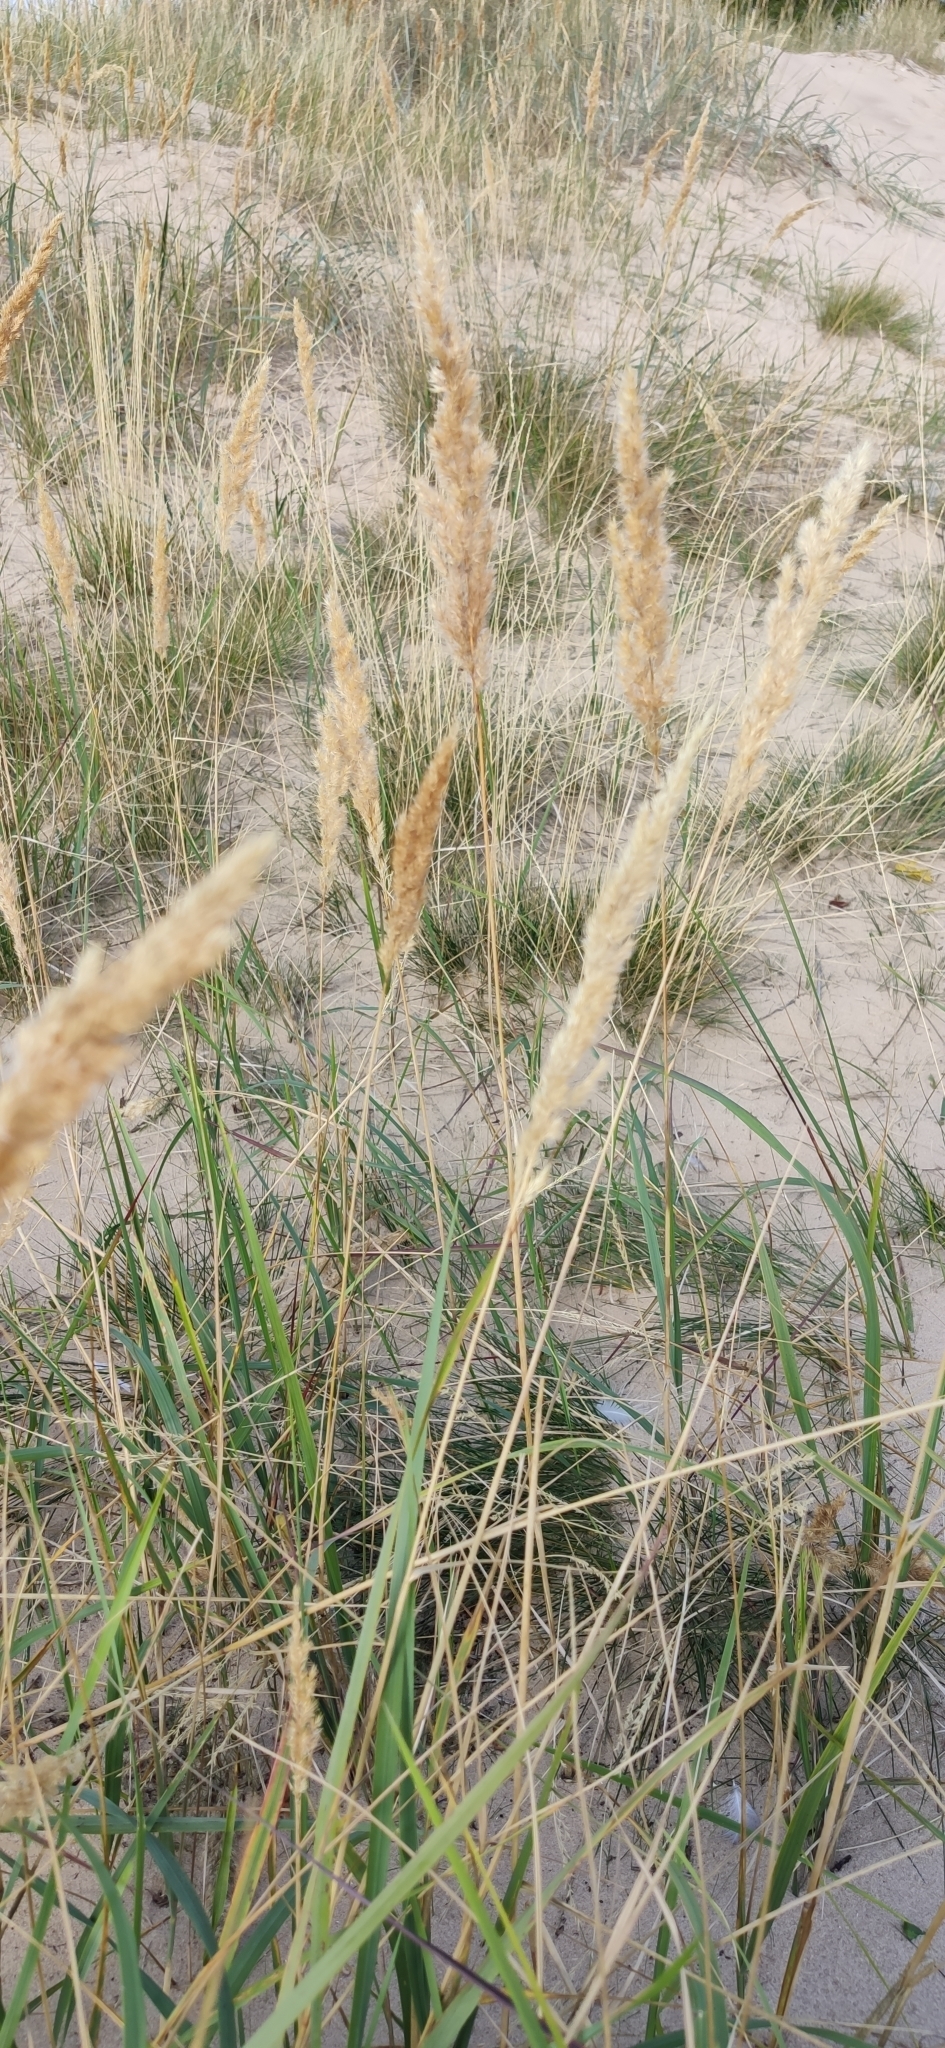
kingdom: Plantae
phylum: Tracheophyta
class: Liliopsida
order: Poales
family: Poaceae
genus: Calamagrostis
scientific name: Calamagrostis epigejos
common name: Wood small-reed
